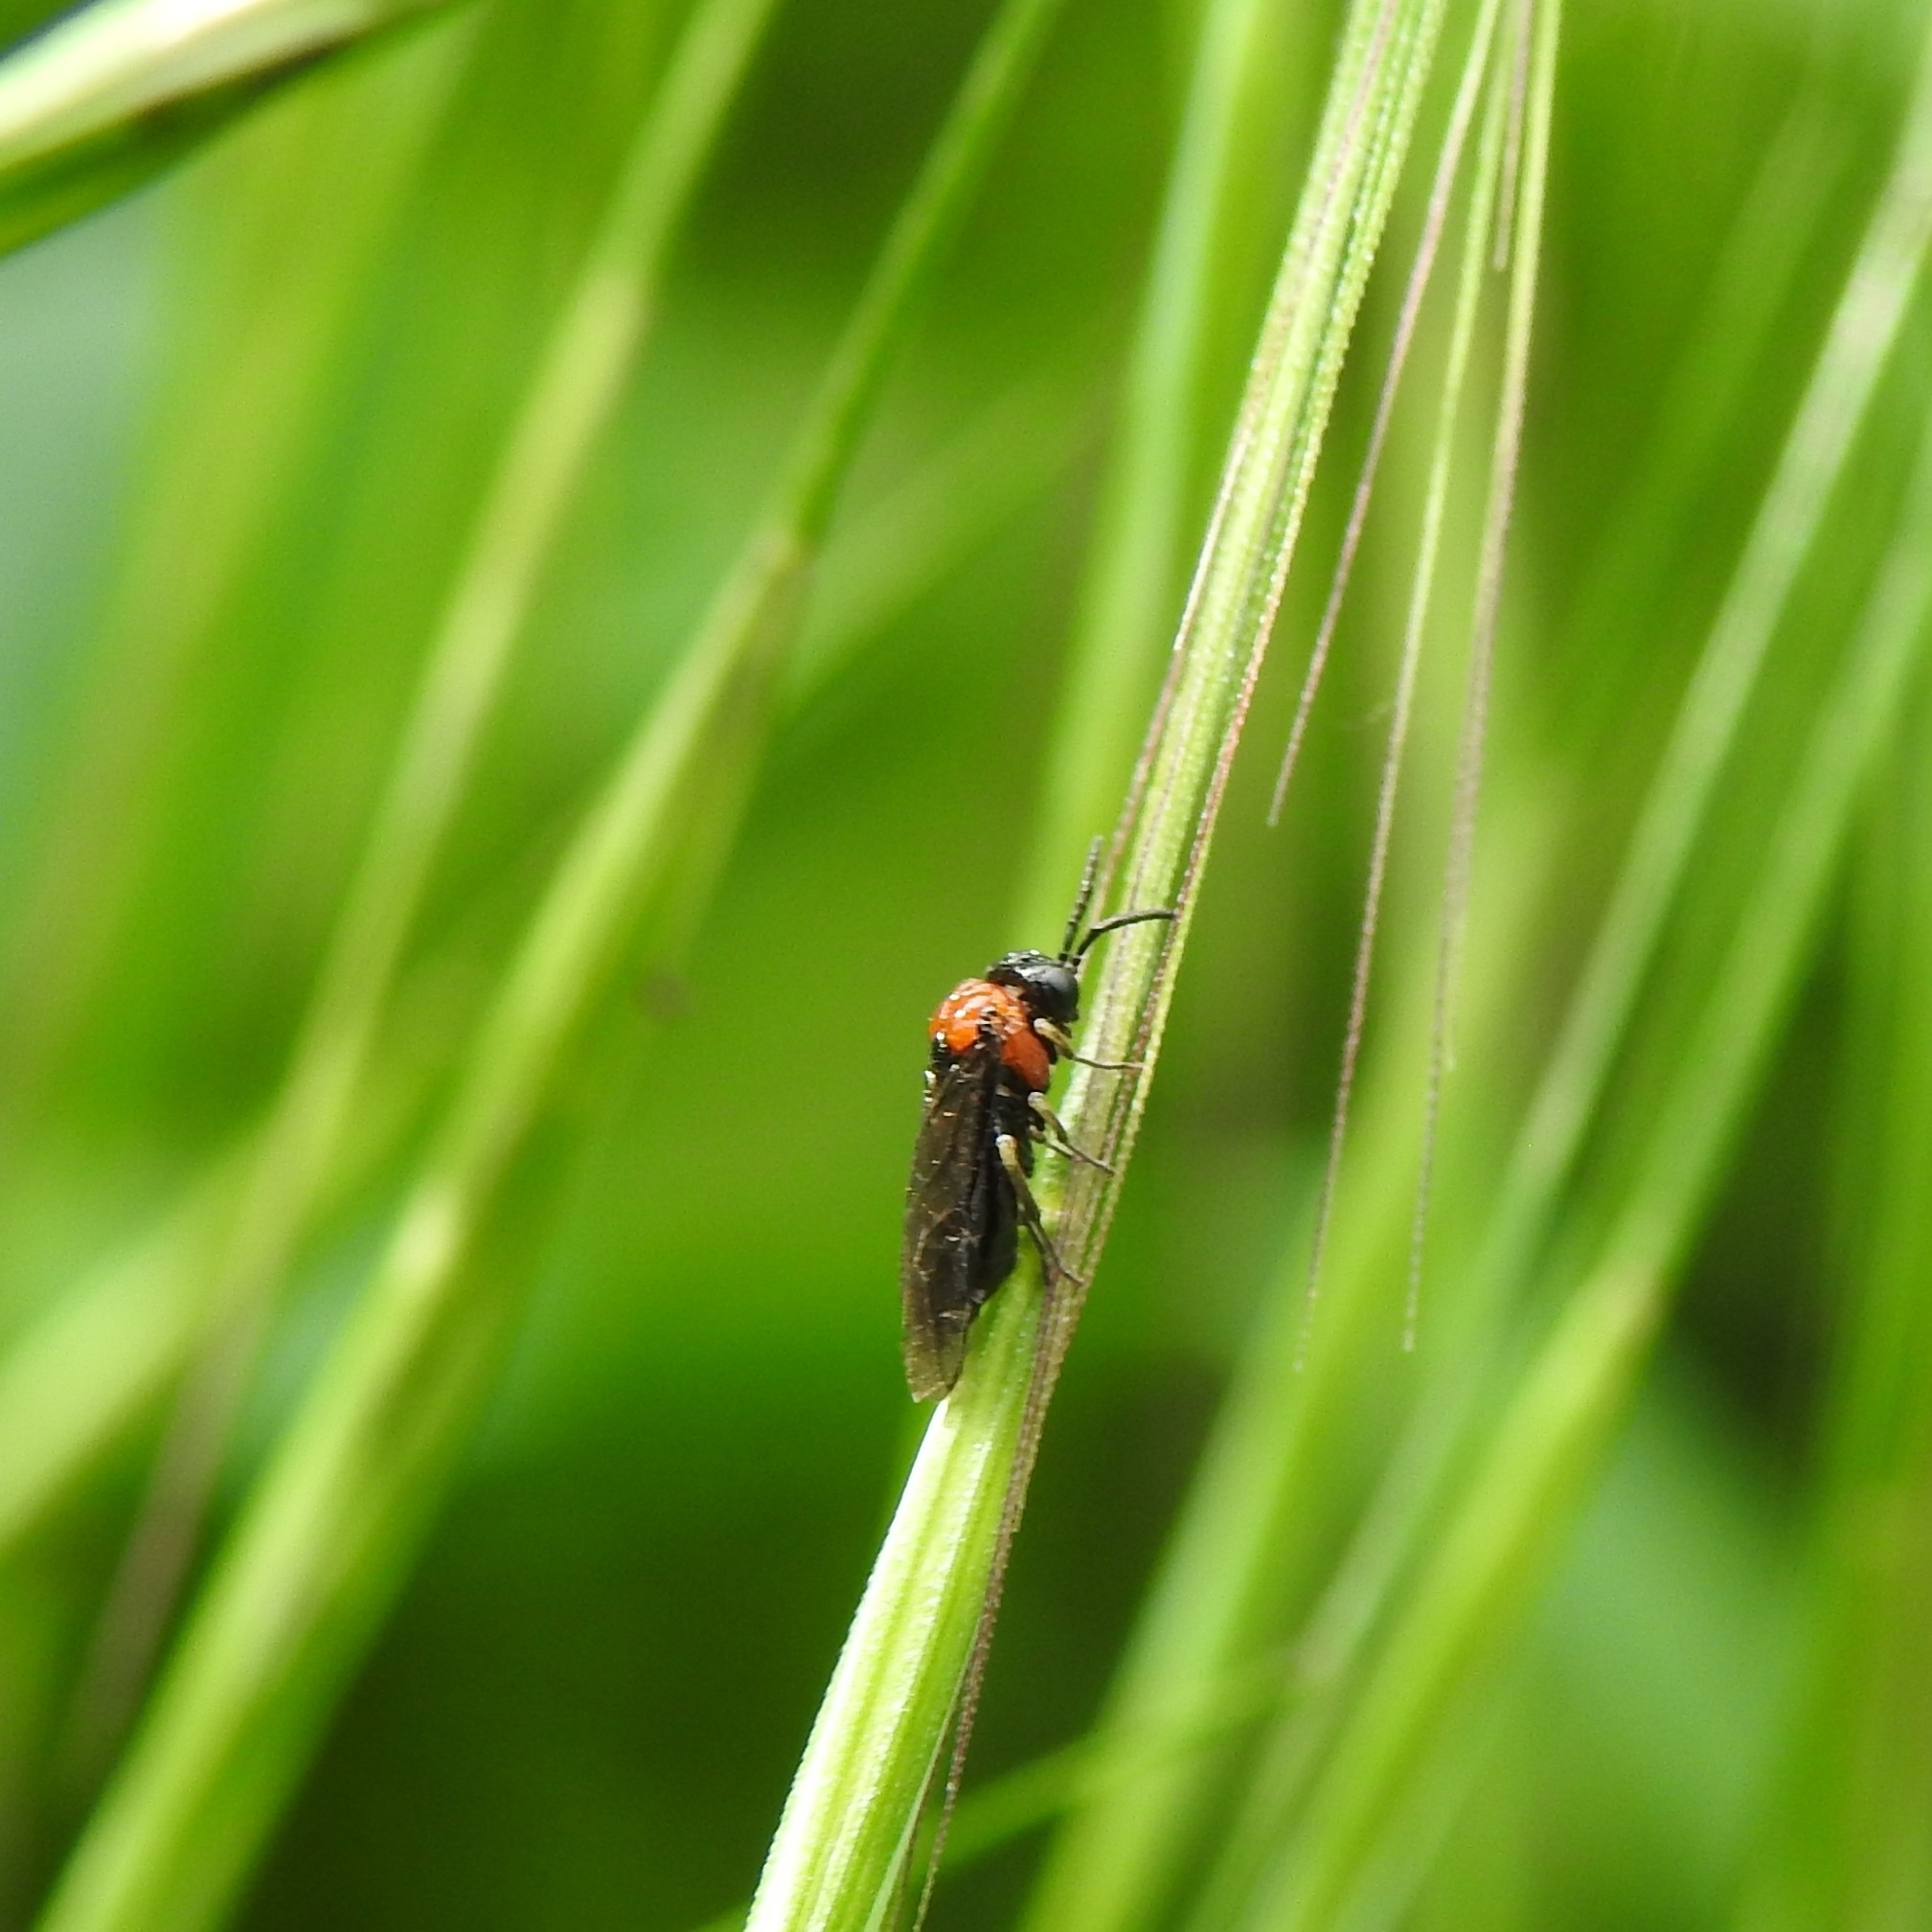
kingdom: Animalia
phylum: Arthropoda
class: Insecta
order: Hymenoptera
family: Tenthredinidae
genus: Eutomostethus
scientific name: Eutomostethus ephippium
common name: Tenthredid wasp
